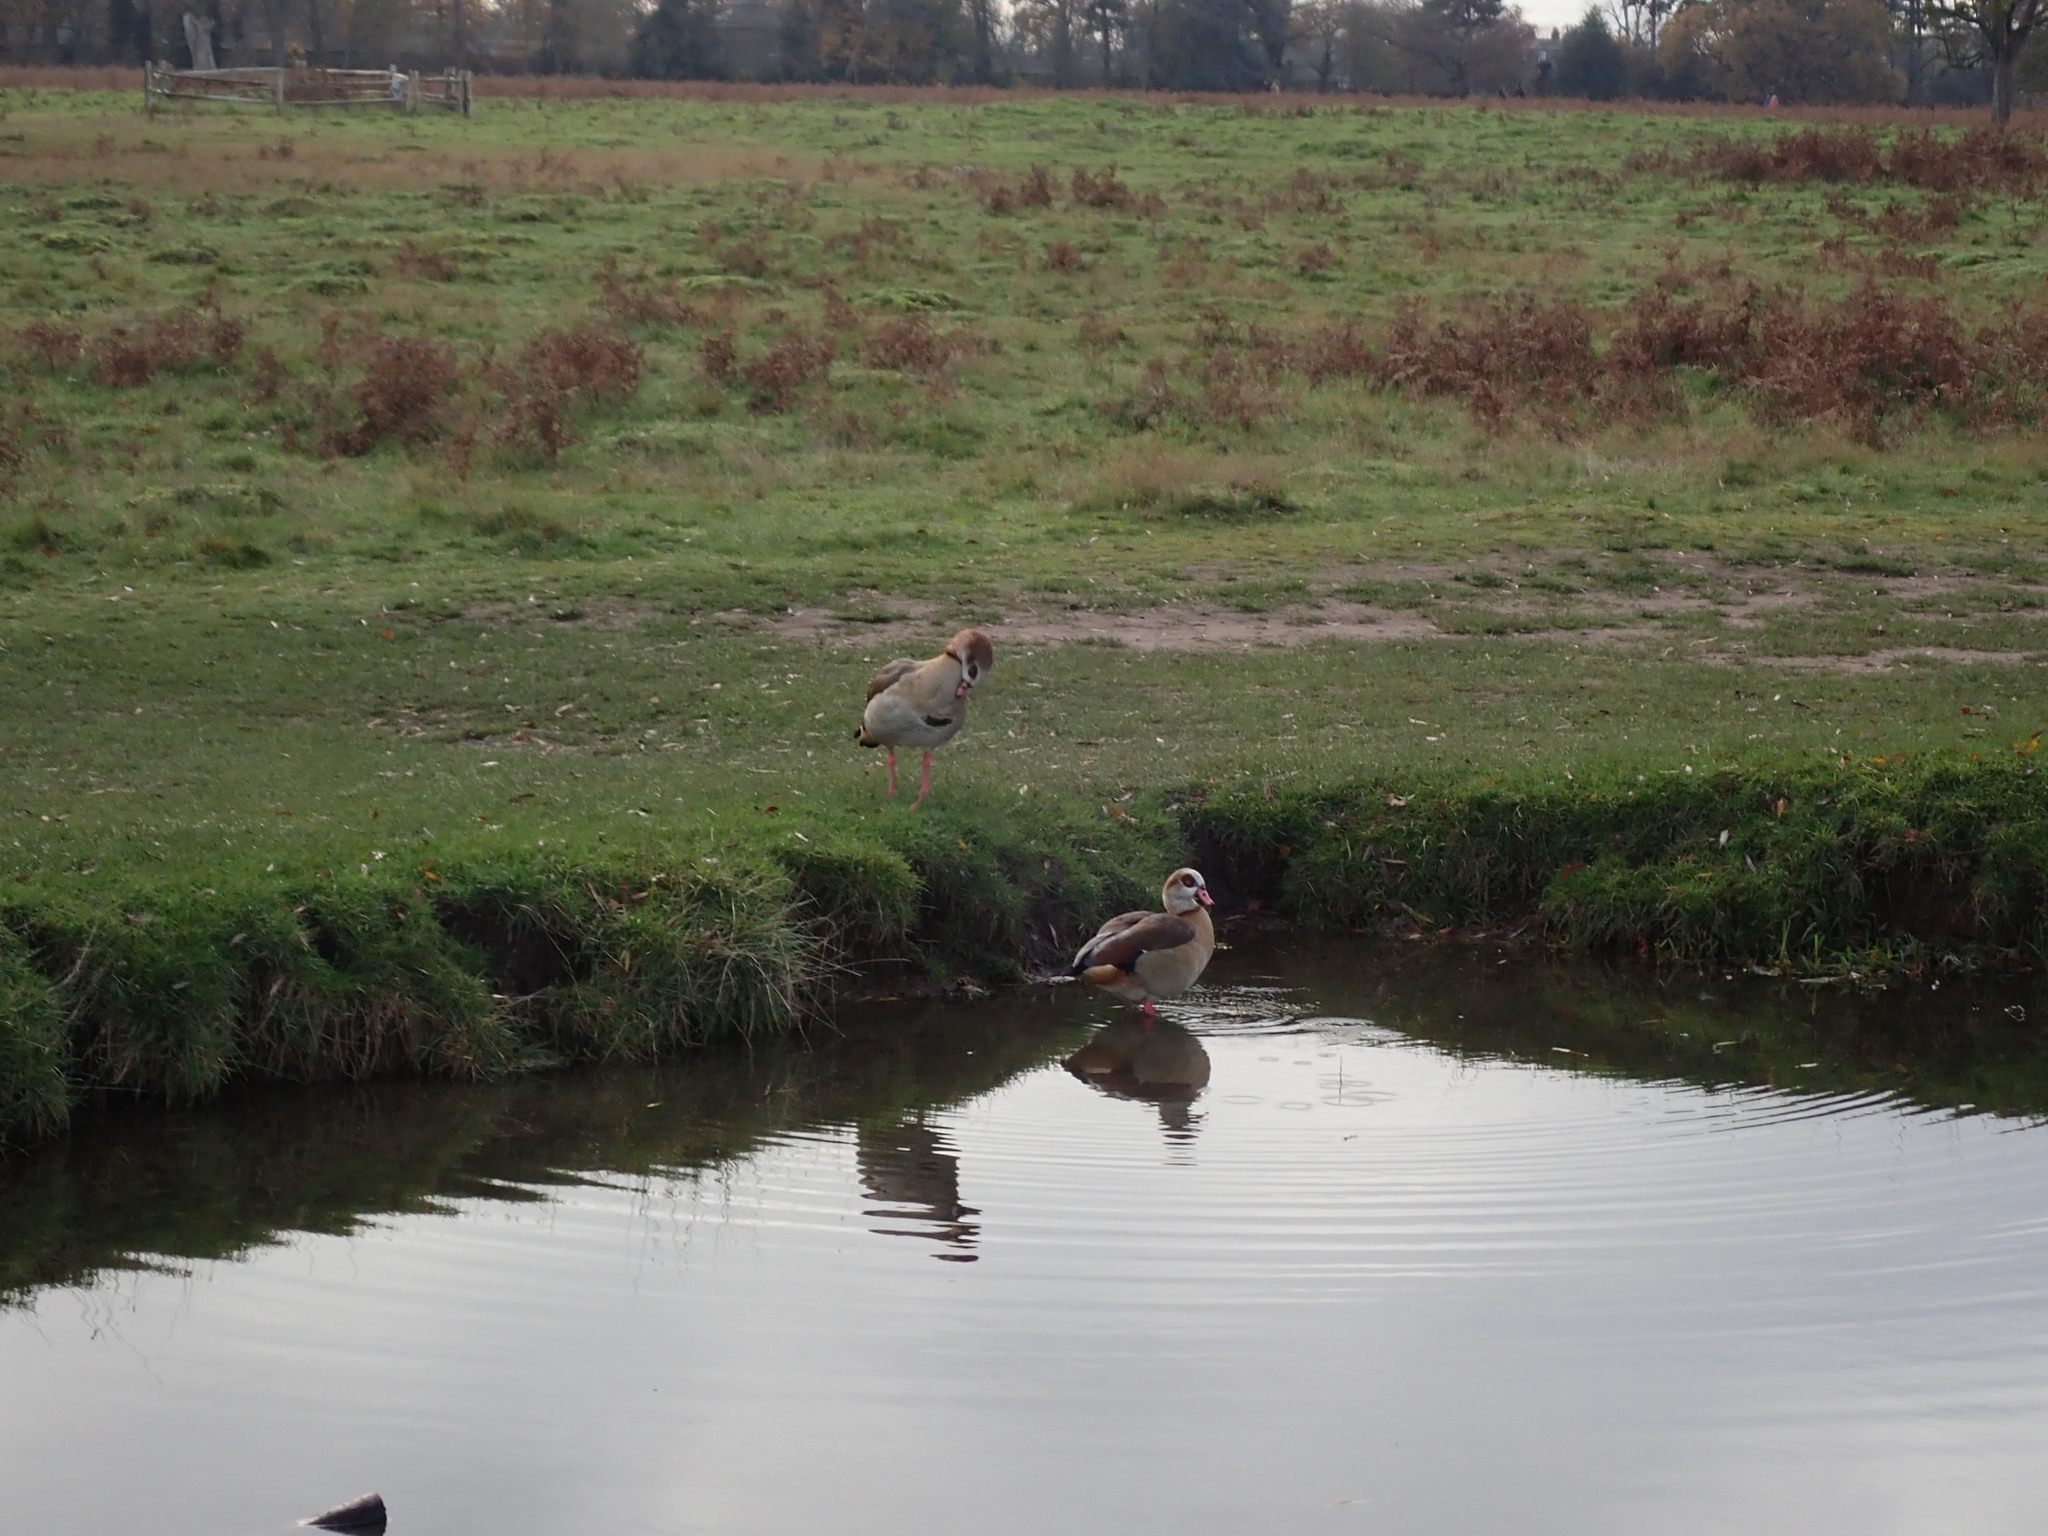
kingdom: Animalia
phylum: Chordata
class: Aves
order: Anseriformes
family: Anatidae
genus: Alopochen
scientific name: Alopochen aegyptiaca
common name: Egyptian goose
